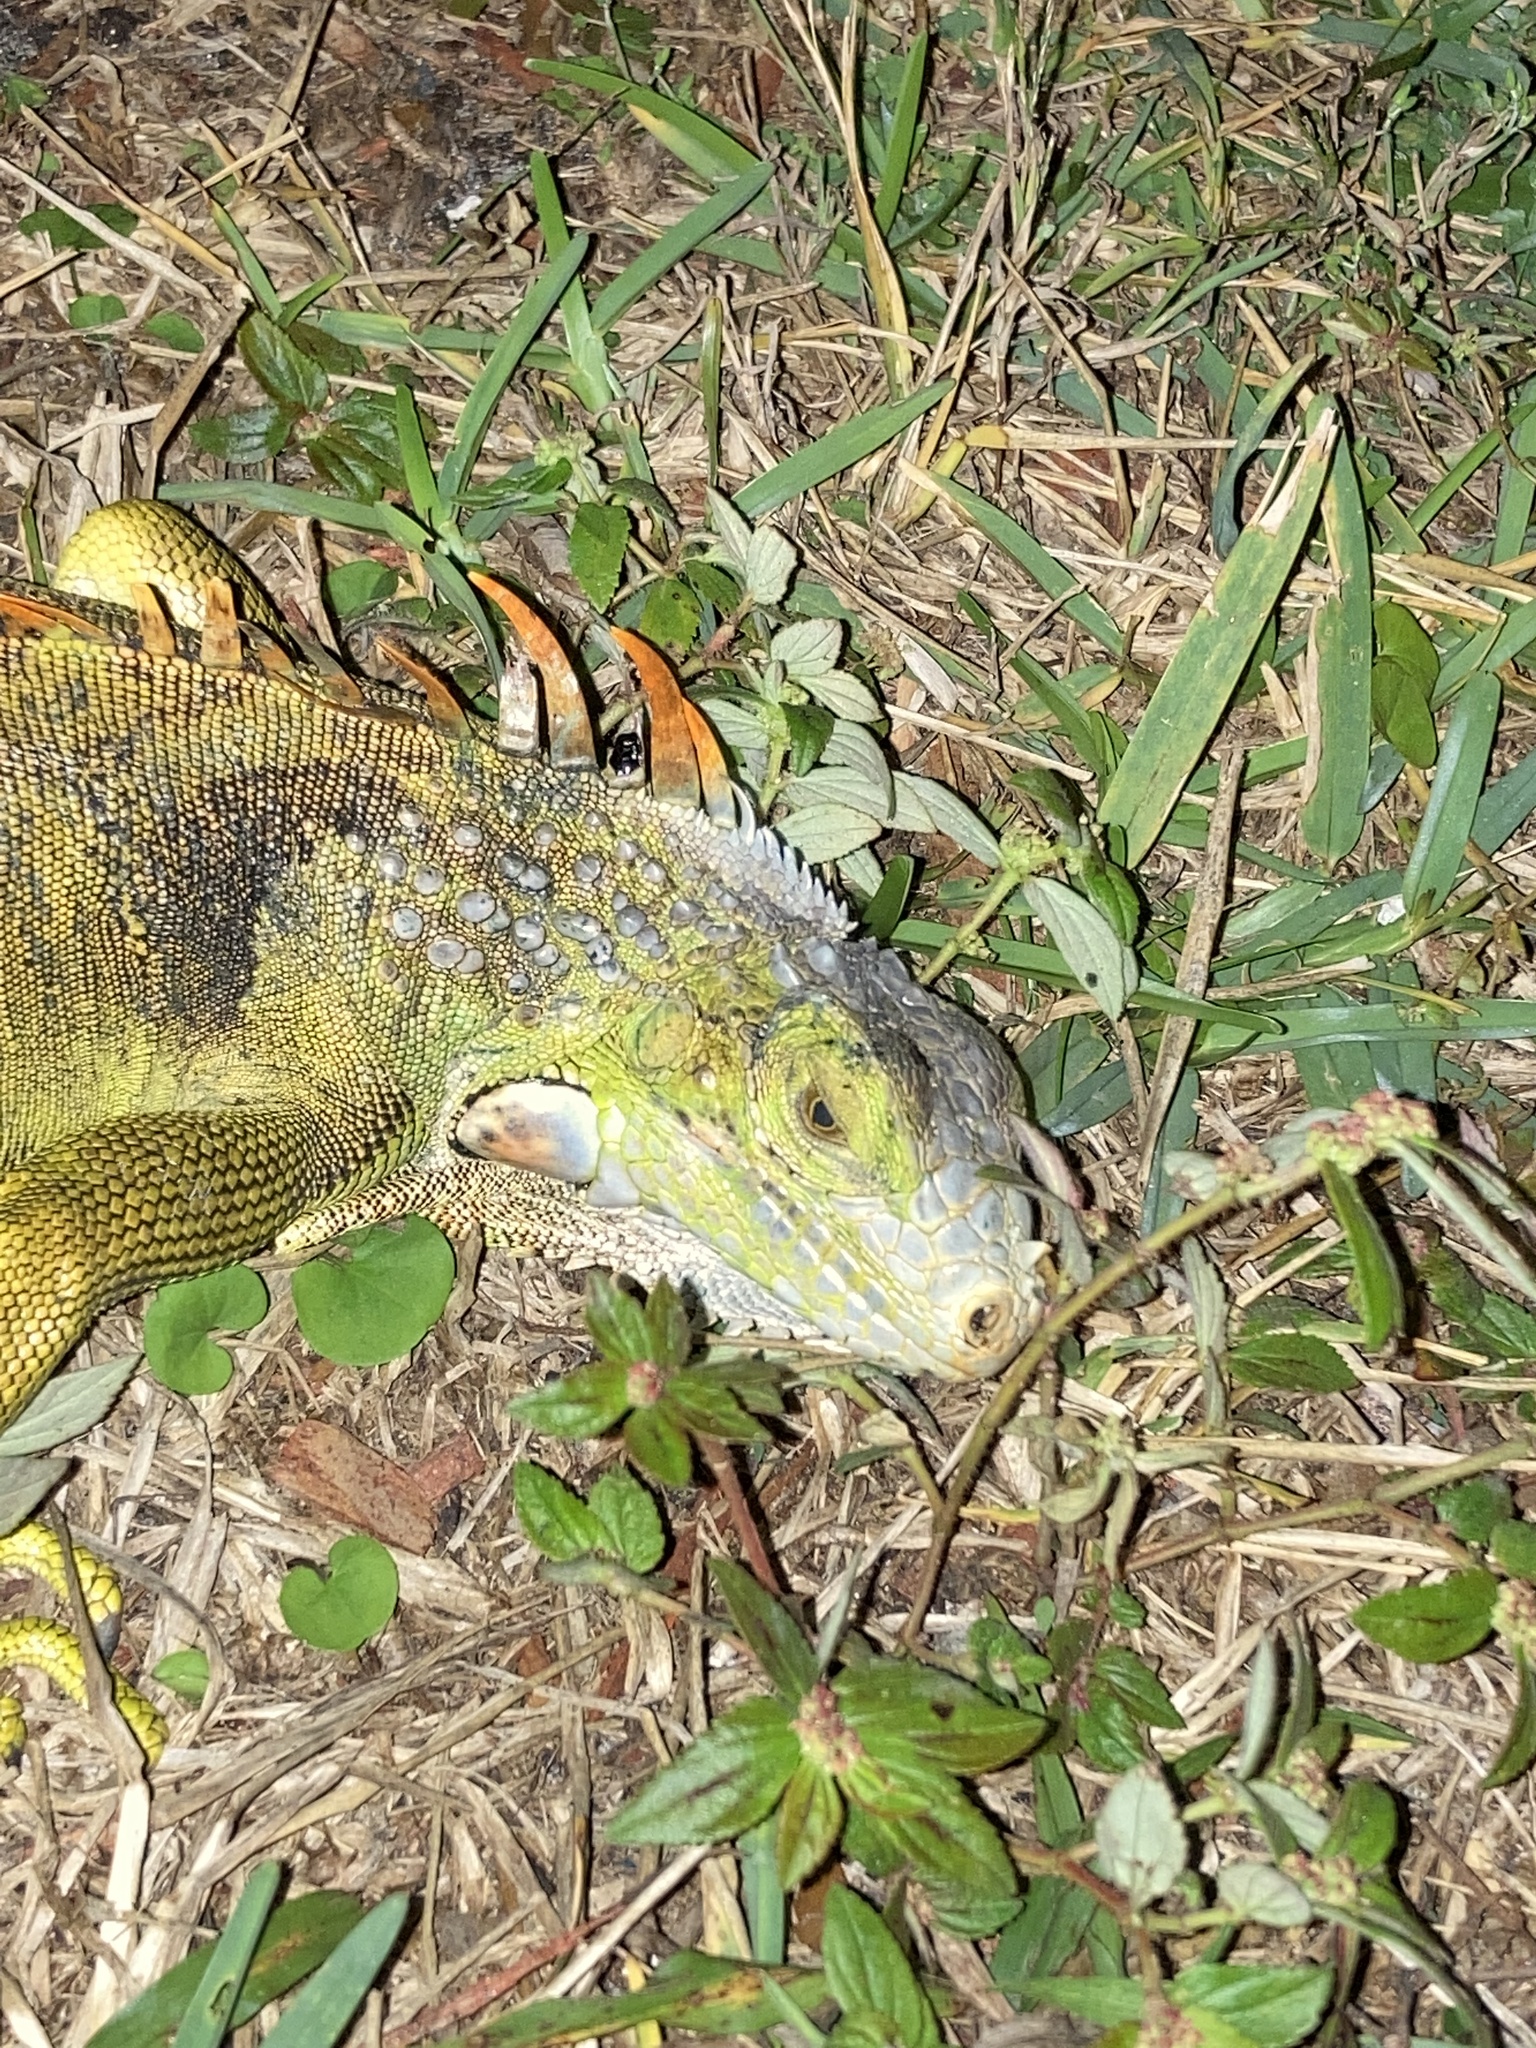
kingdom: Animalia
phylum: Chordata
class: Squamata
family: Iguanidae
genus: Iguana
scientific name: Iguana iguana
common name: Green iguana
